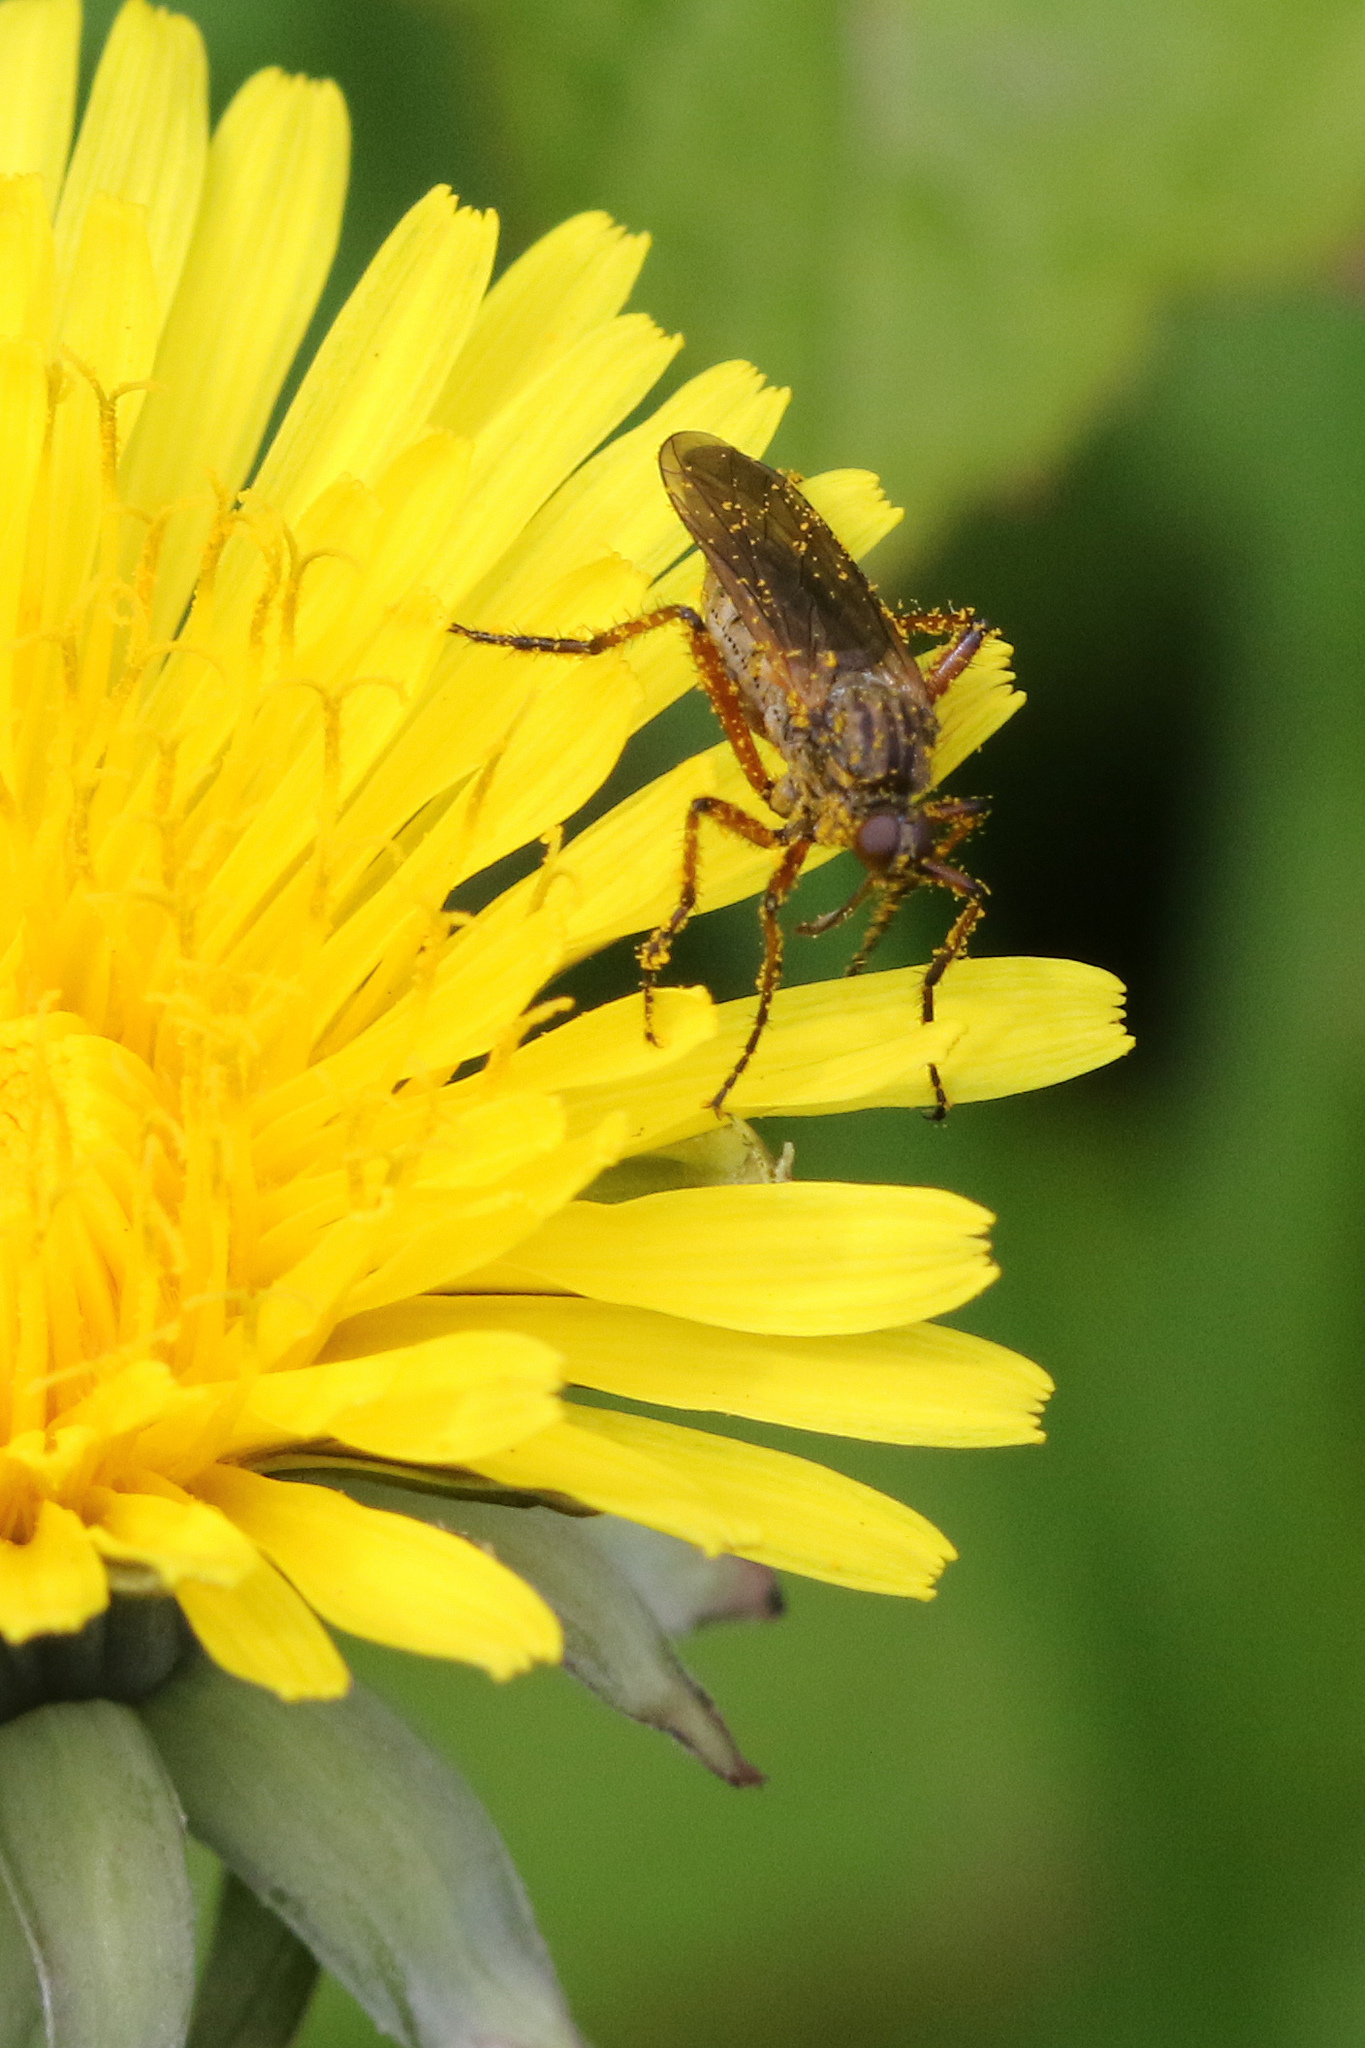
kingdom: Animalia
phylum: Arthropoda
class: Insecta
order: Diptera
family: Empididae
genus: Empis
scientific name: Empis opaca
